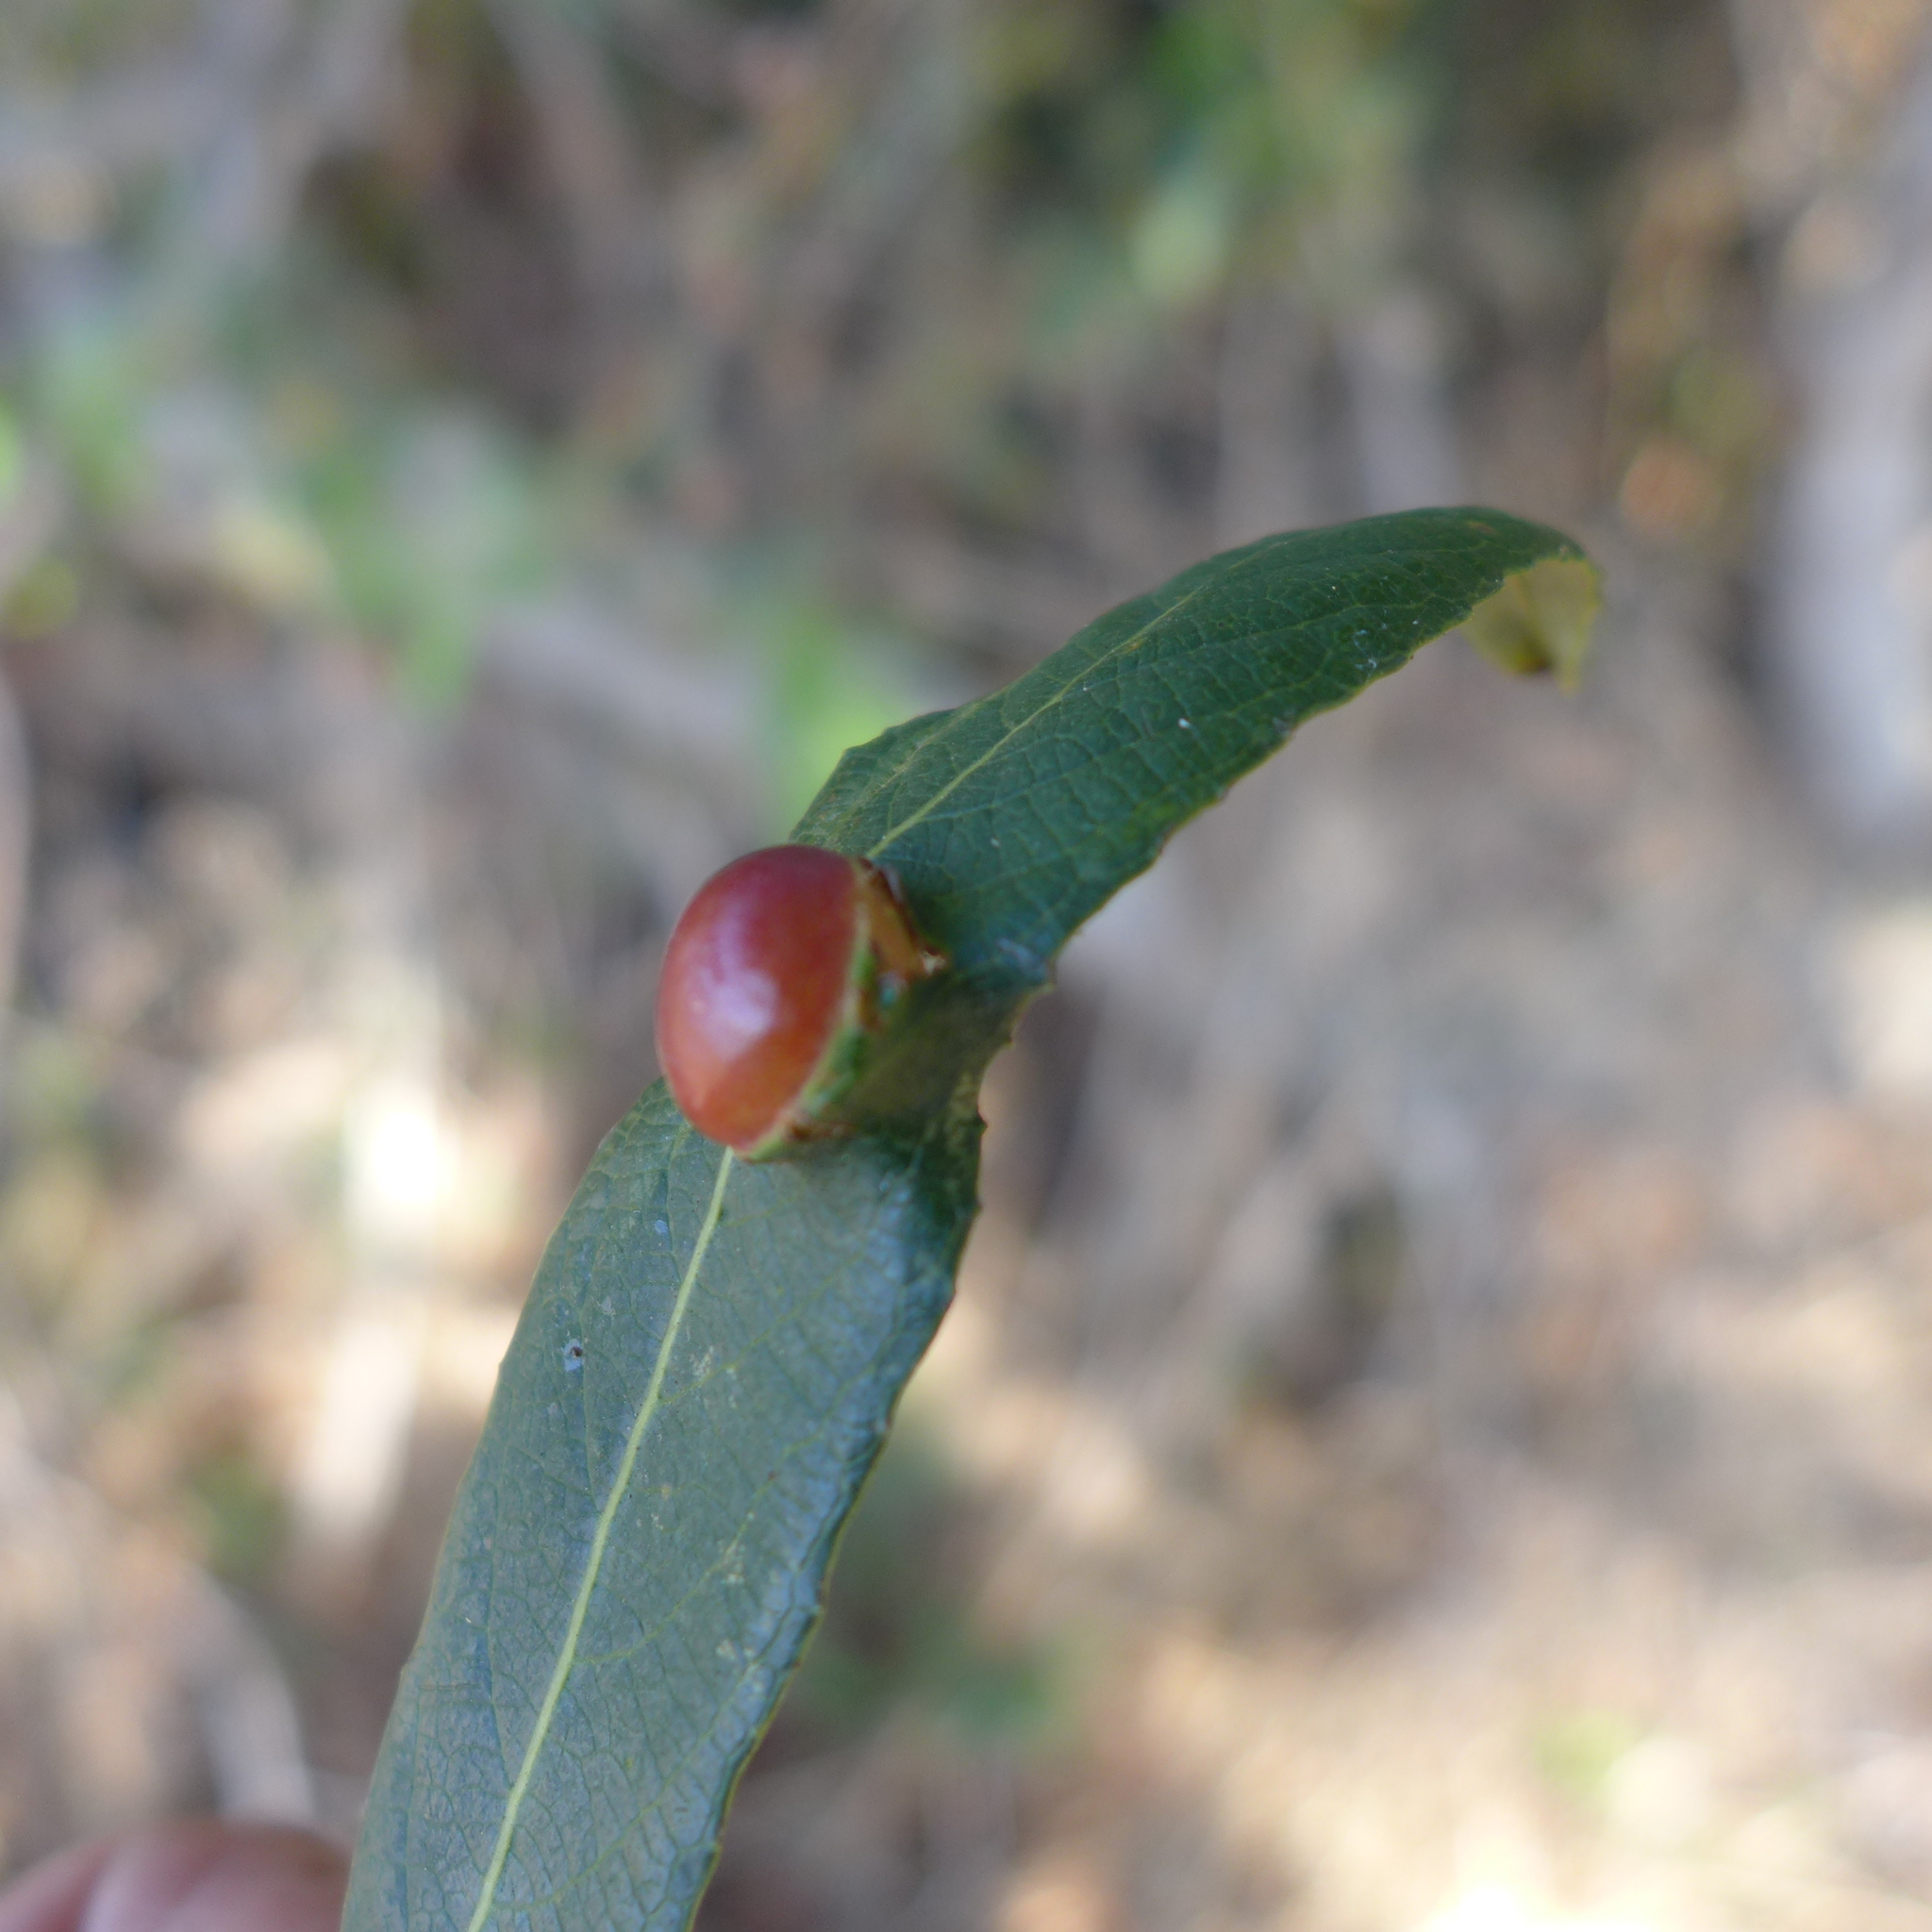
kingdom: Animalia
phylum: Arthropoda
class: Insecta
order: Hymenoptera
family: Tenthredinidae
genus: Euura
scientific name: Euura
